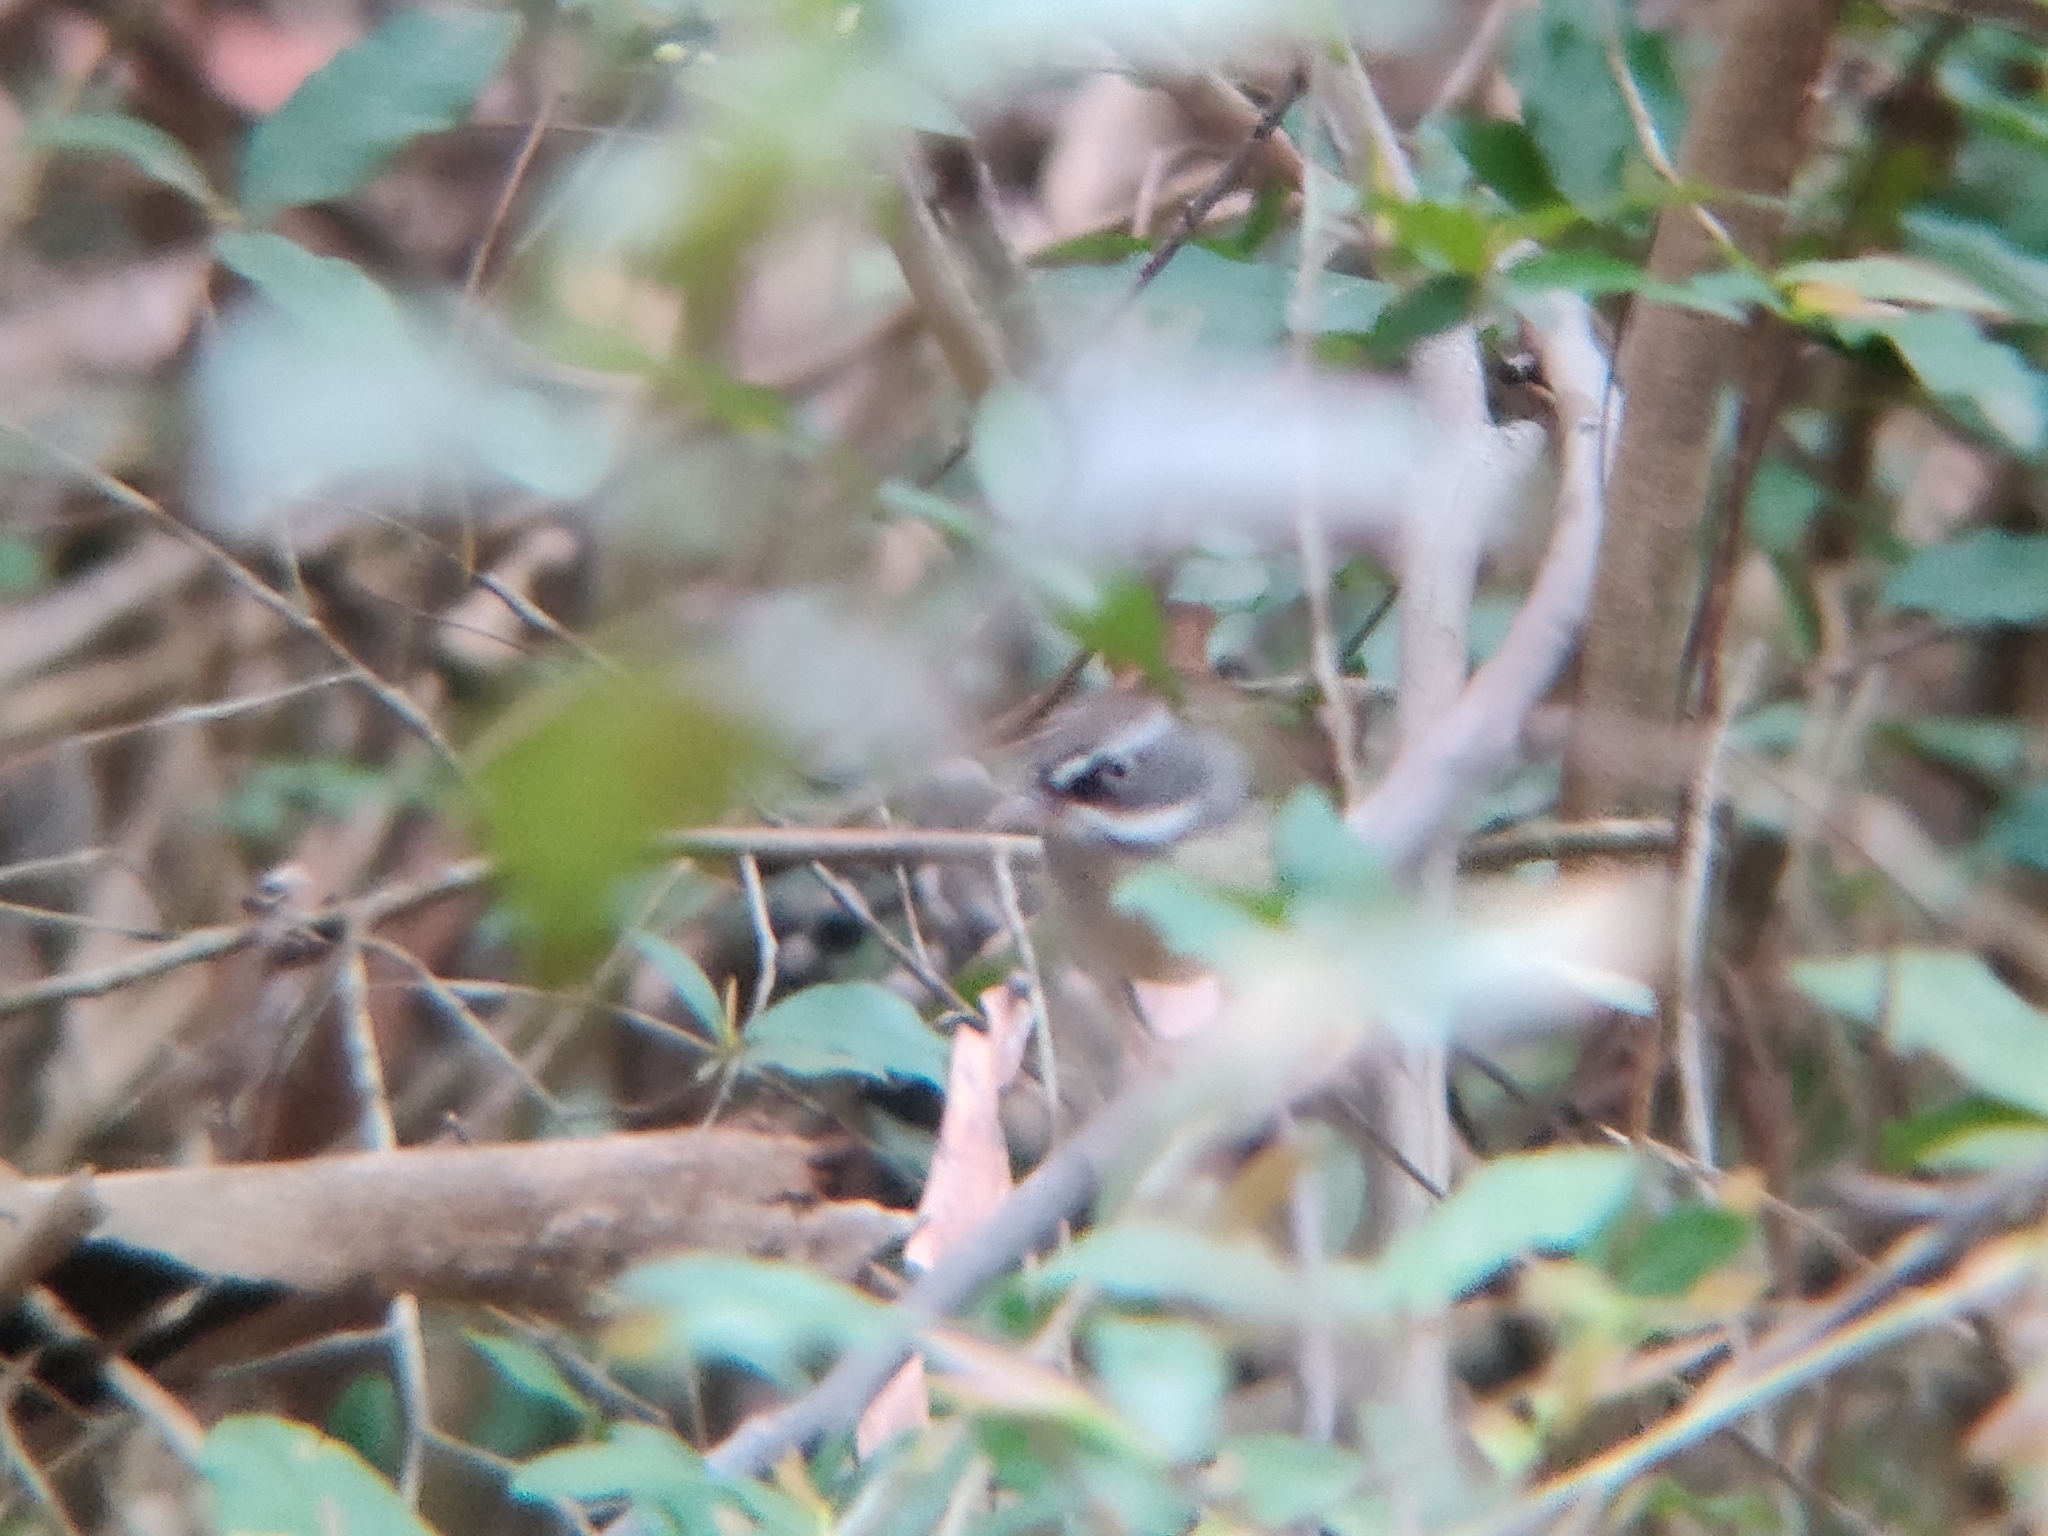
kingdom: Animalia
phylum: Chordata
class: Aves
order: Passeriformes
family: Acanthizidae
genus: Sericornis
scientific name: Sericornis frontalis
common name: White-browed scrubwren
